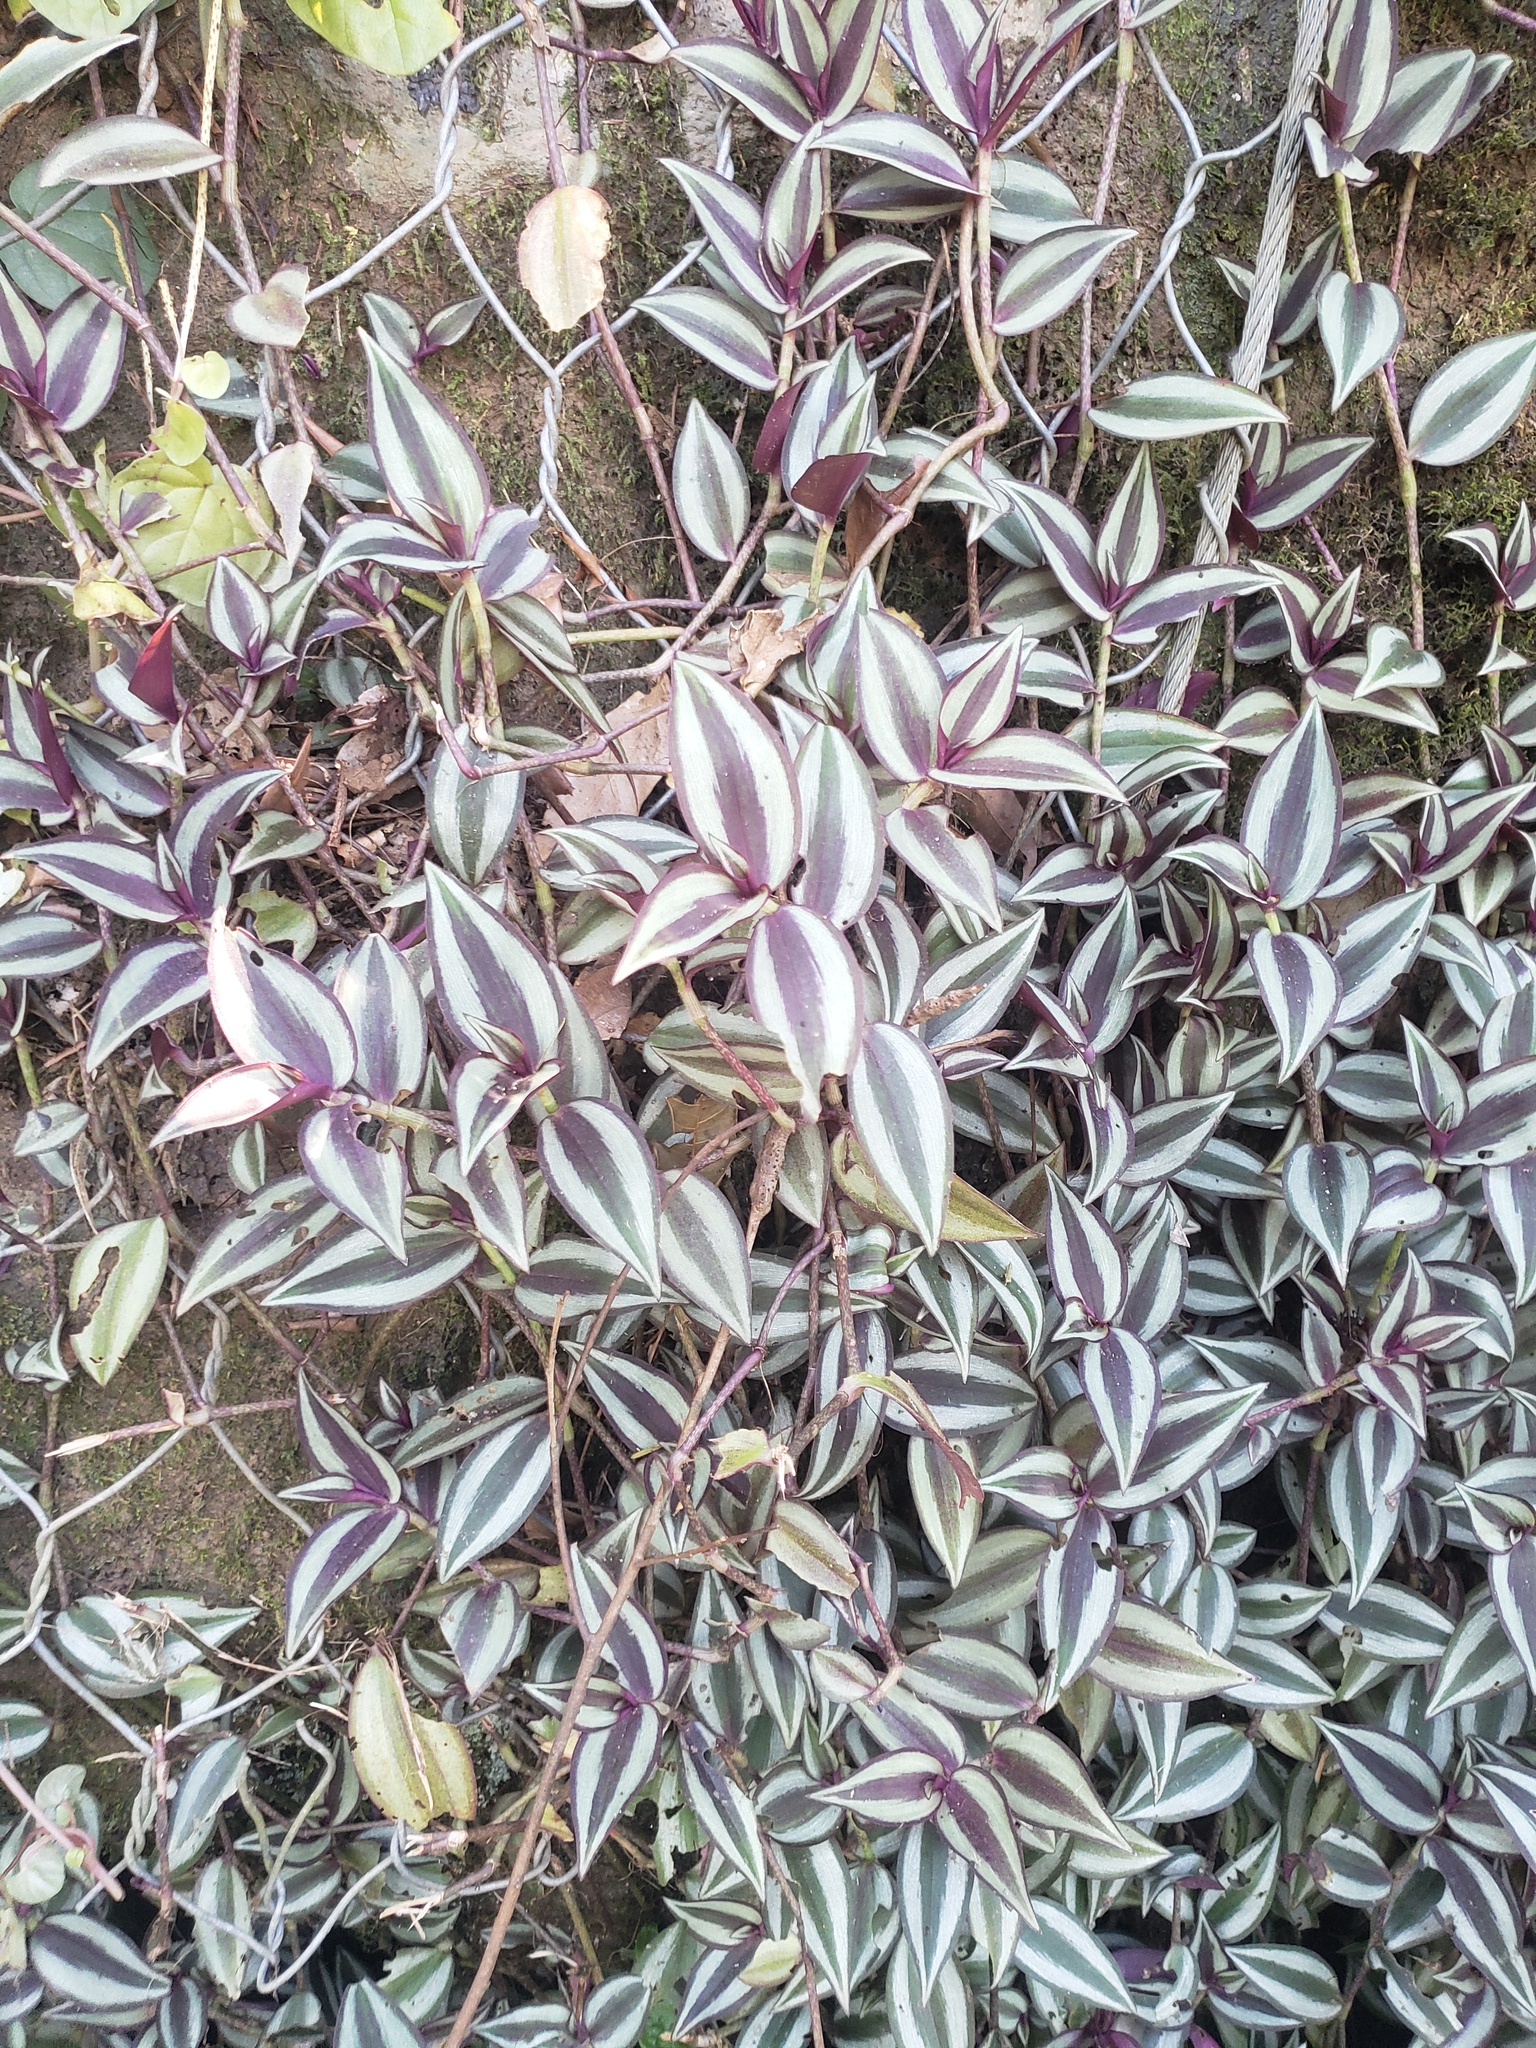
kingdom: Plantae
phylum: Tracheophyta
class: Liliopsida
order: Commelinales
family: Commelinaceae
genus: Tradescantia
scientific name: Tradescantia zebrina
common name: Inchplant
